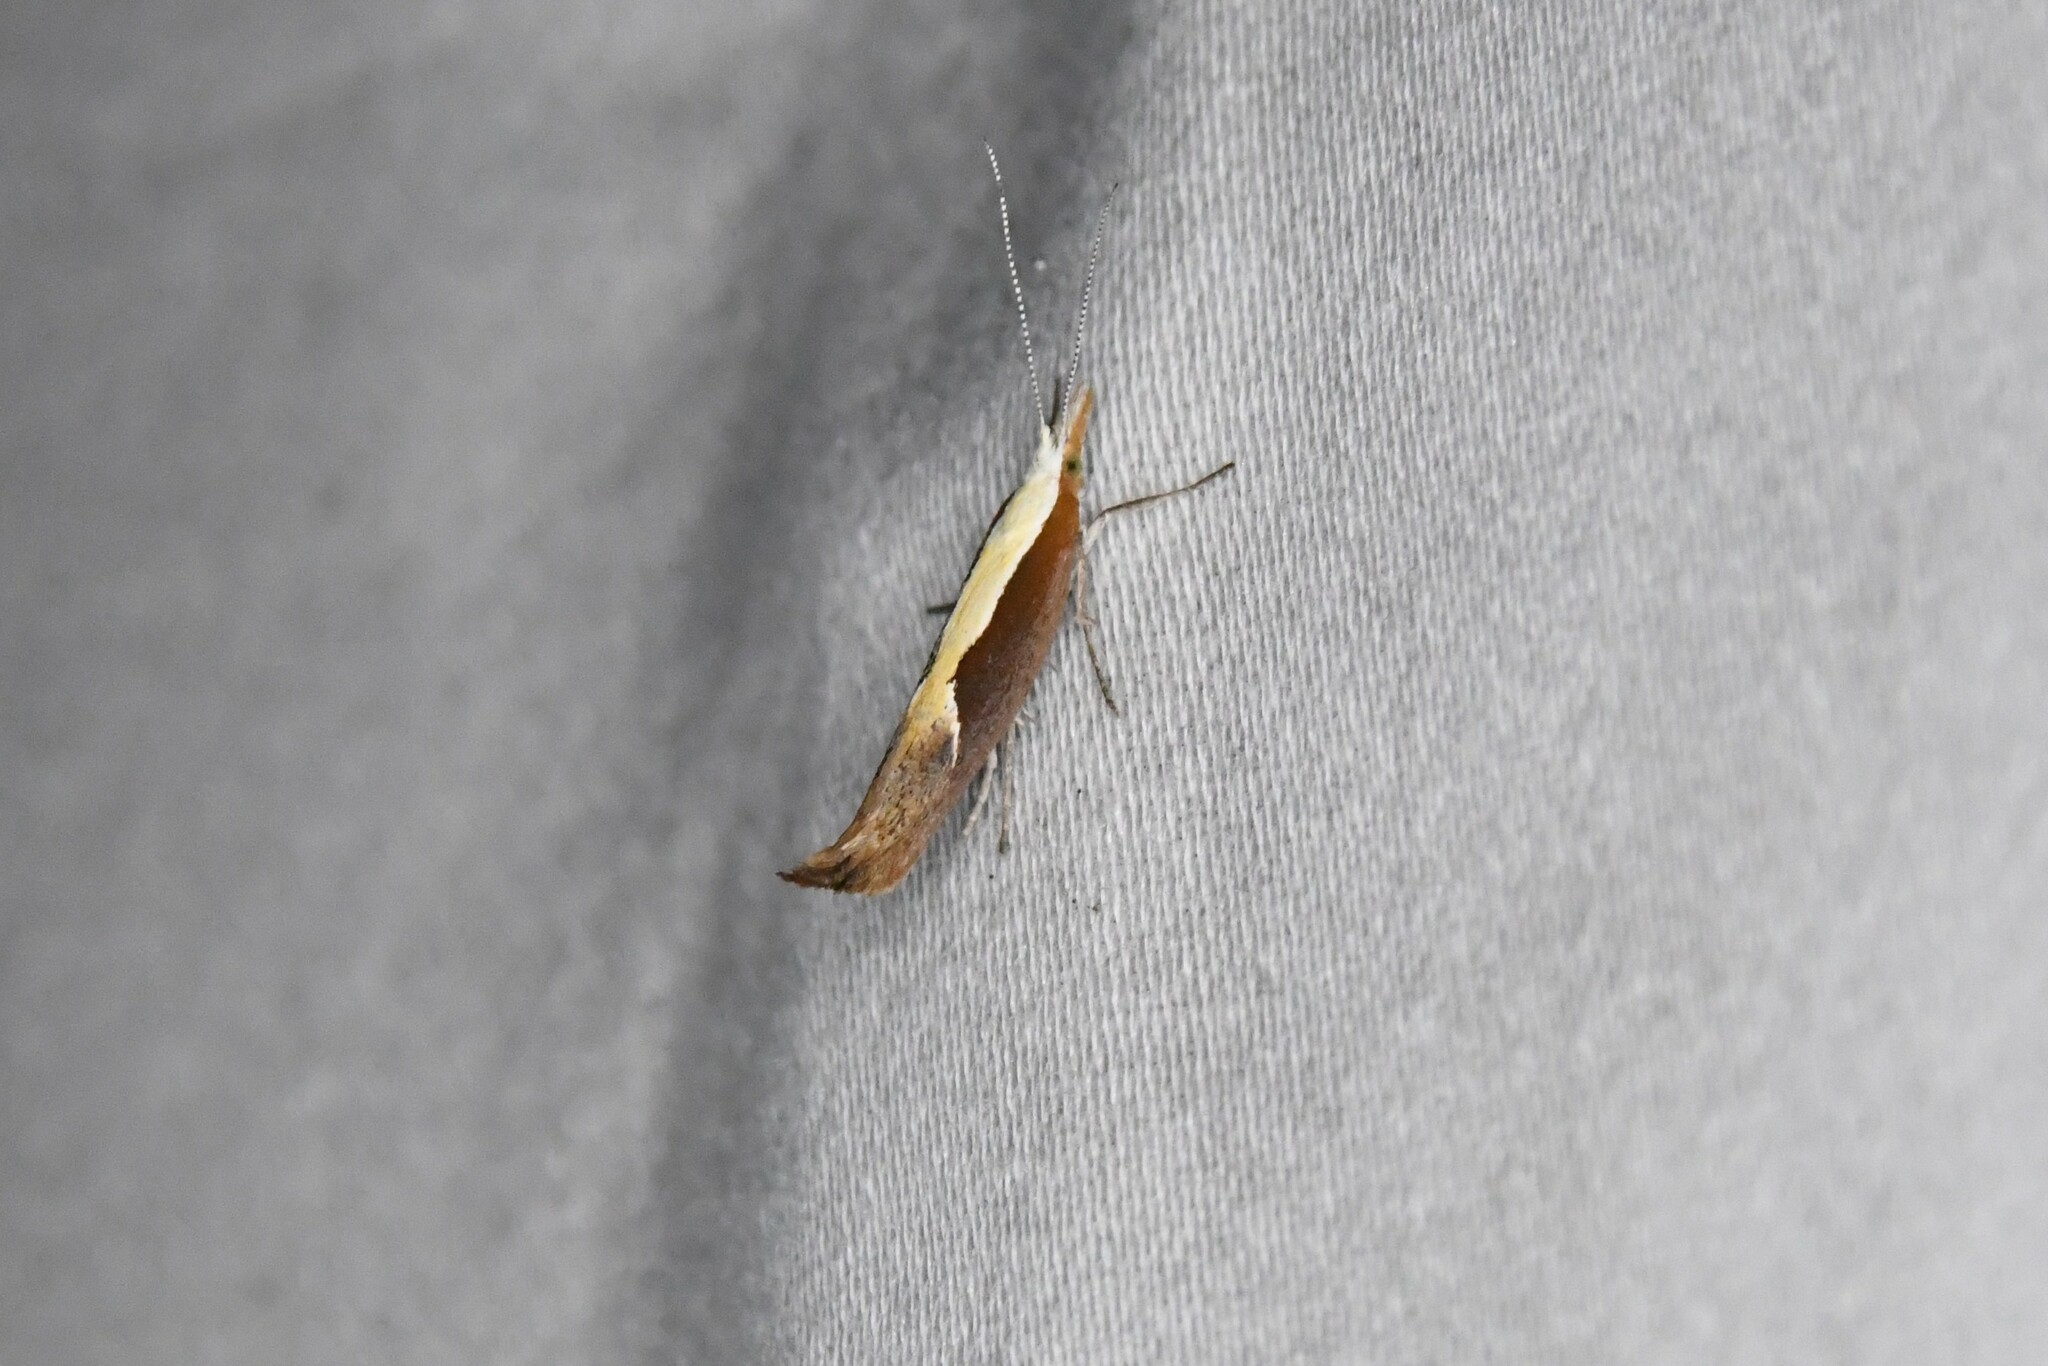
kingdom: Animalia
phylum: Arthropoda
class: Insecta
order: Lepidoptera
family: Ypsolophidae
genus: Ypsolopha
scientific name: Ypsolopha dentella
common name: Honeysuckle moth
